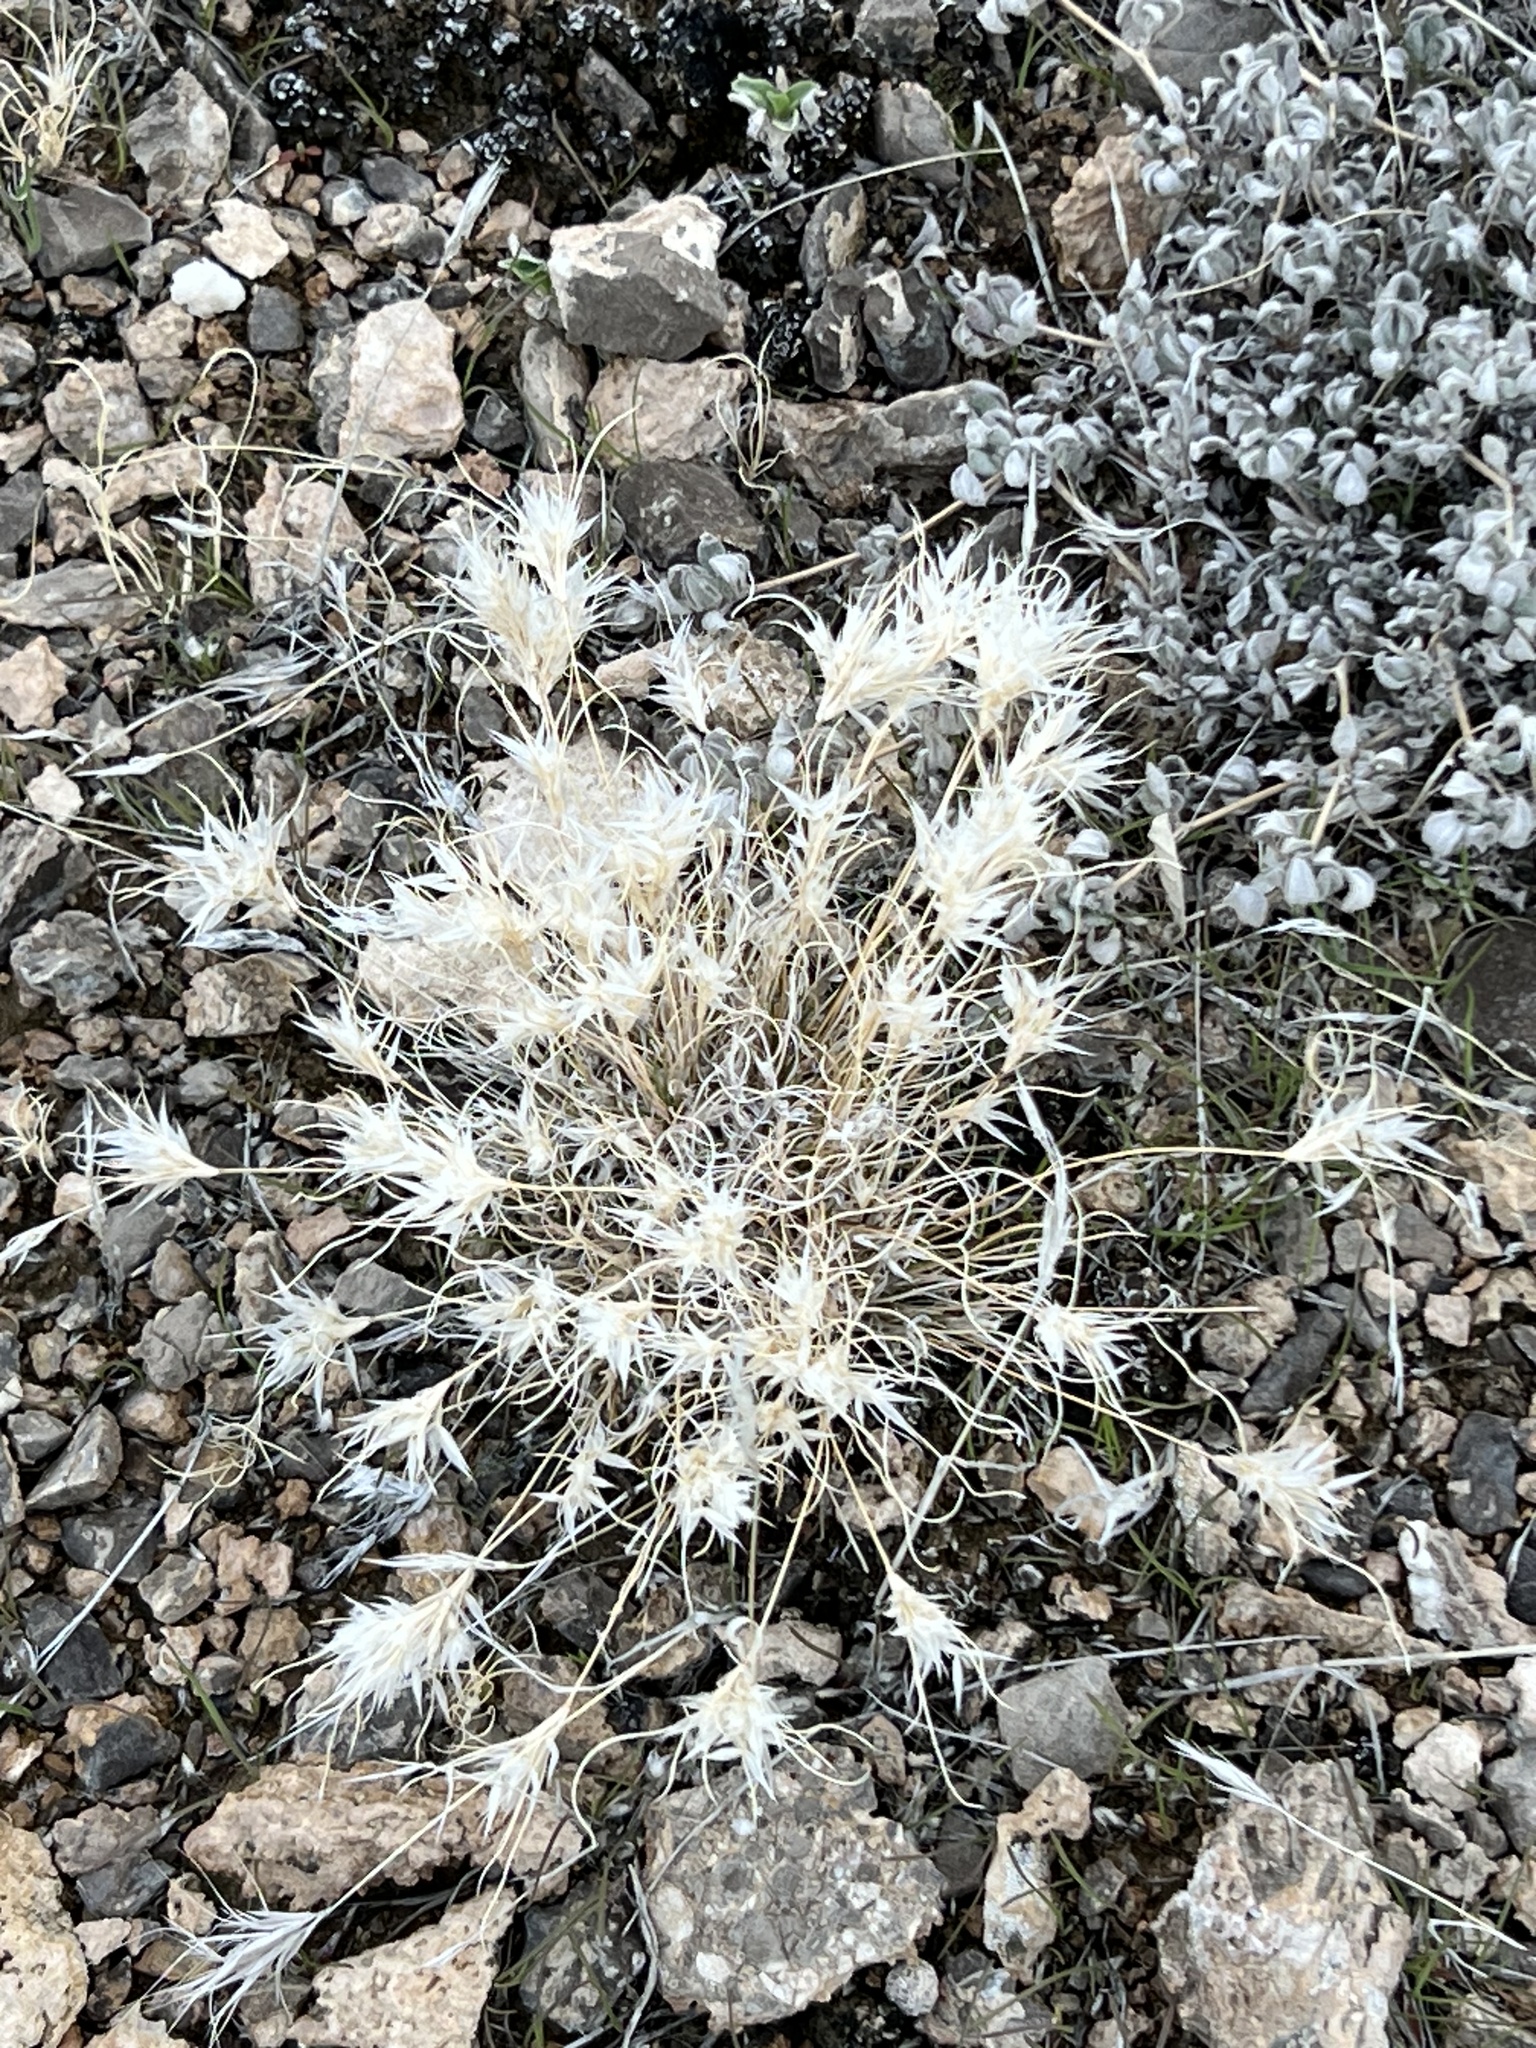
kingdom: Plantae
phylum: Tracheophyta
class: Liliopsida
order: Poales
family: Poaceae
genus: Dasyochloa
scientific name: Dasyochloa pulchella
